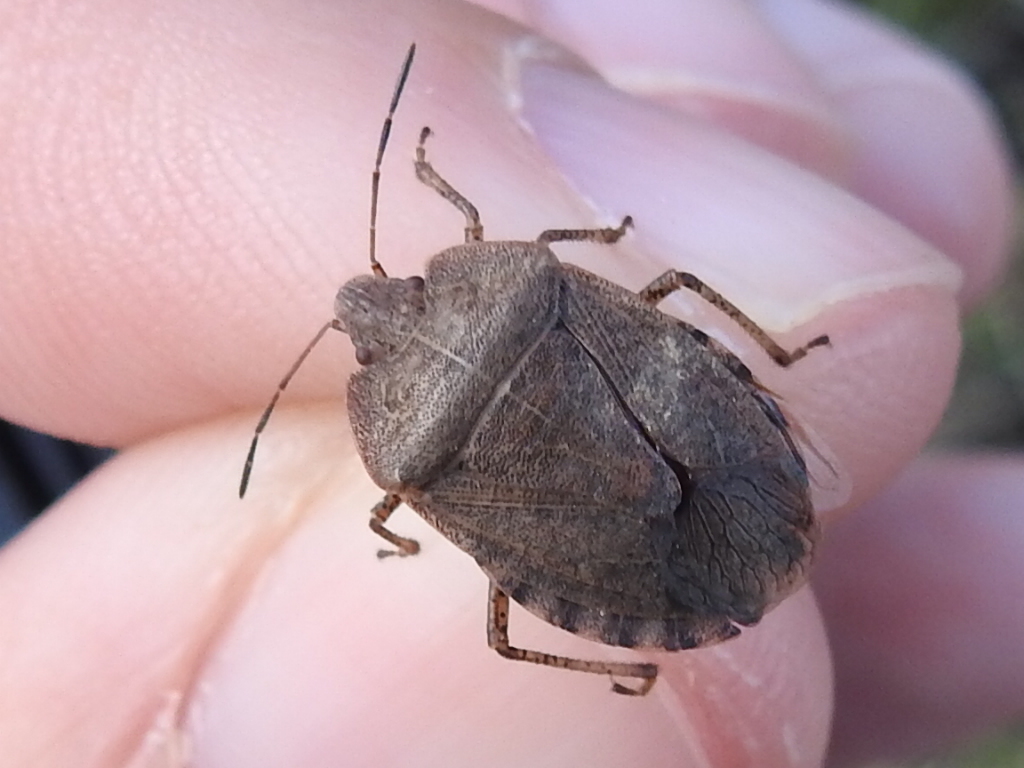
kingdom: Animalia
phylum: Arthropoda
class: Insecta
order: Hemiptera
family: Pentatomidae
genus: Menecles
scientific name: Menecles insertus
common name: Elf shoe stink bug
